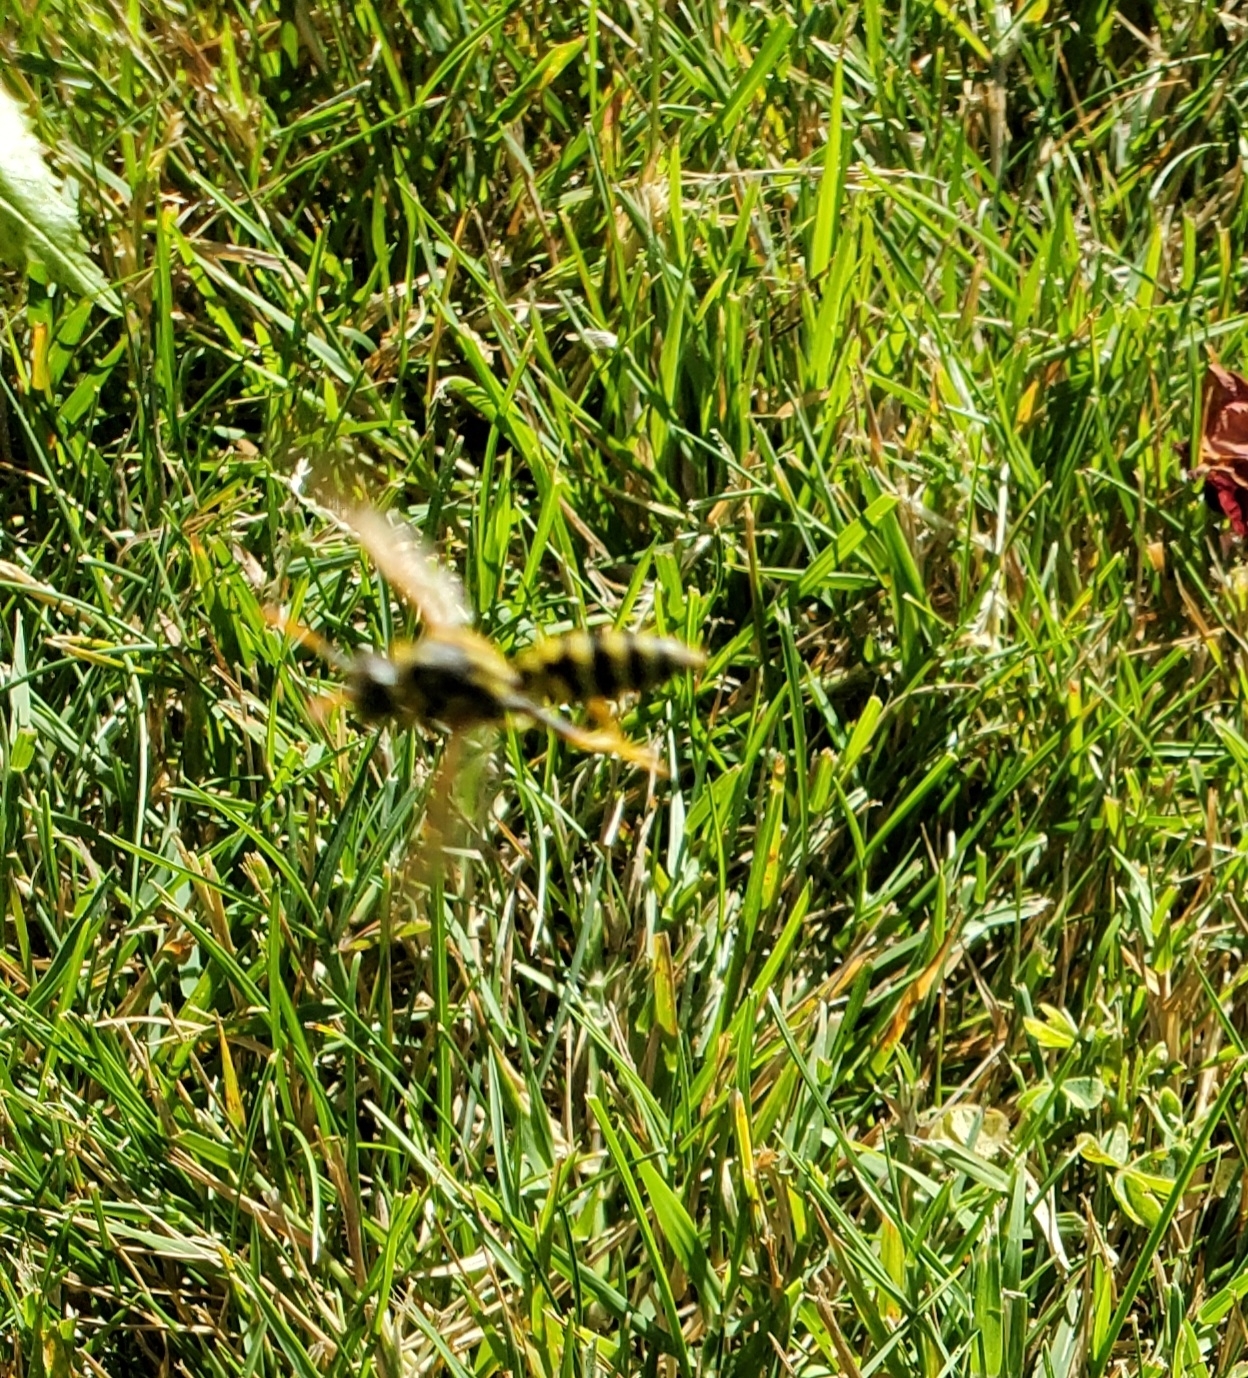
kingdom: Animalia
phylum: Arthropoda
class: Insecta
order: Hymenoptera
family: Eumenidae
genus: Polistes
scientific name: Polistes dominula
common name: Paper wasp
